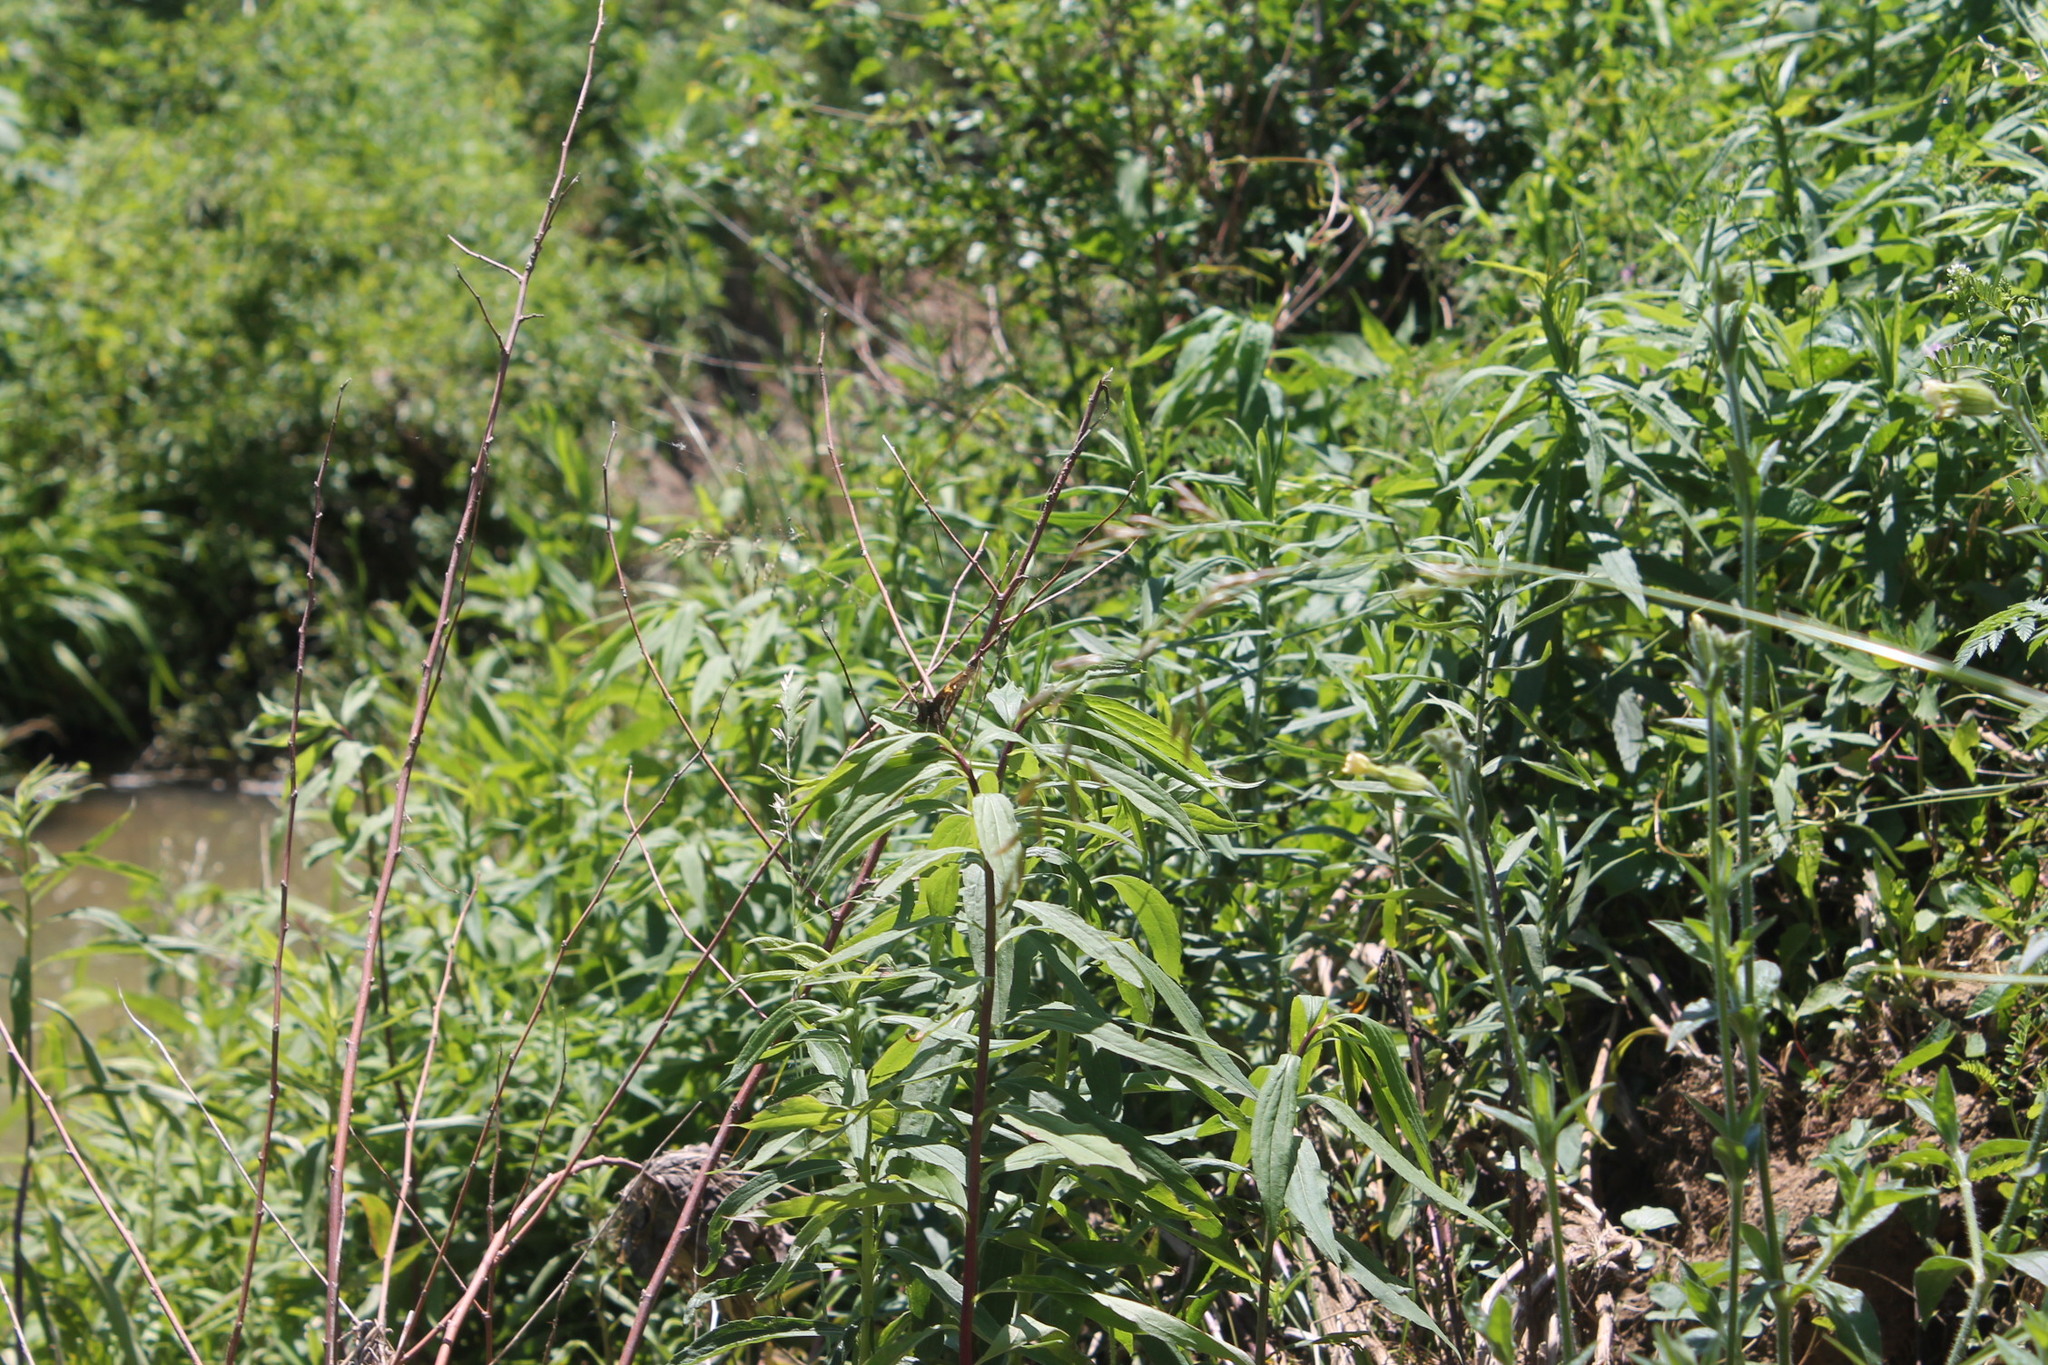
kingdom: Animalia
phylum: Arthropoda
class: Insecta
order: Lepidoptera
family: Hesperiidae
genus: Epargyreus
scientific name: Epargyreus clarus
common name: Silver-spotted skipper
